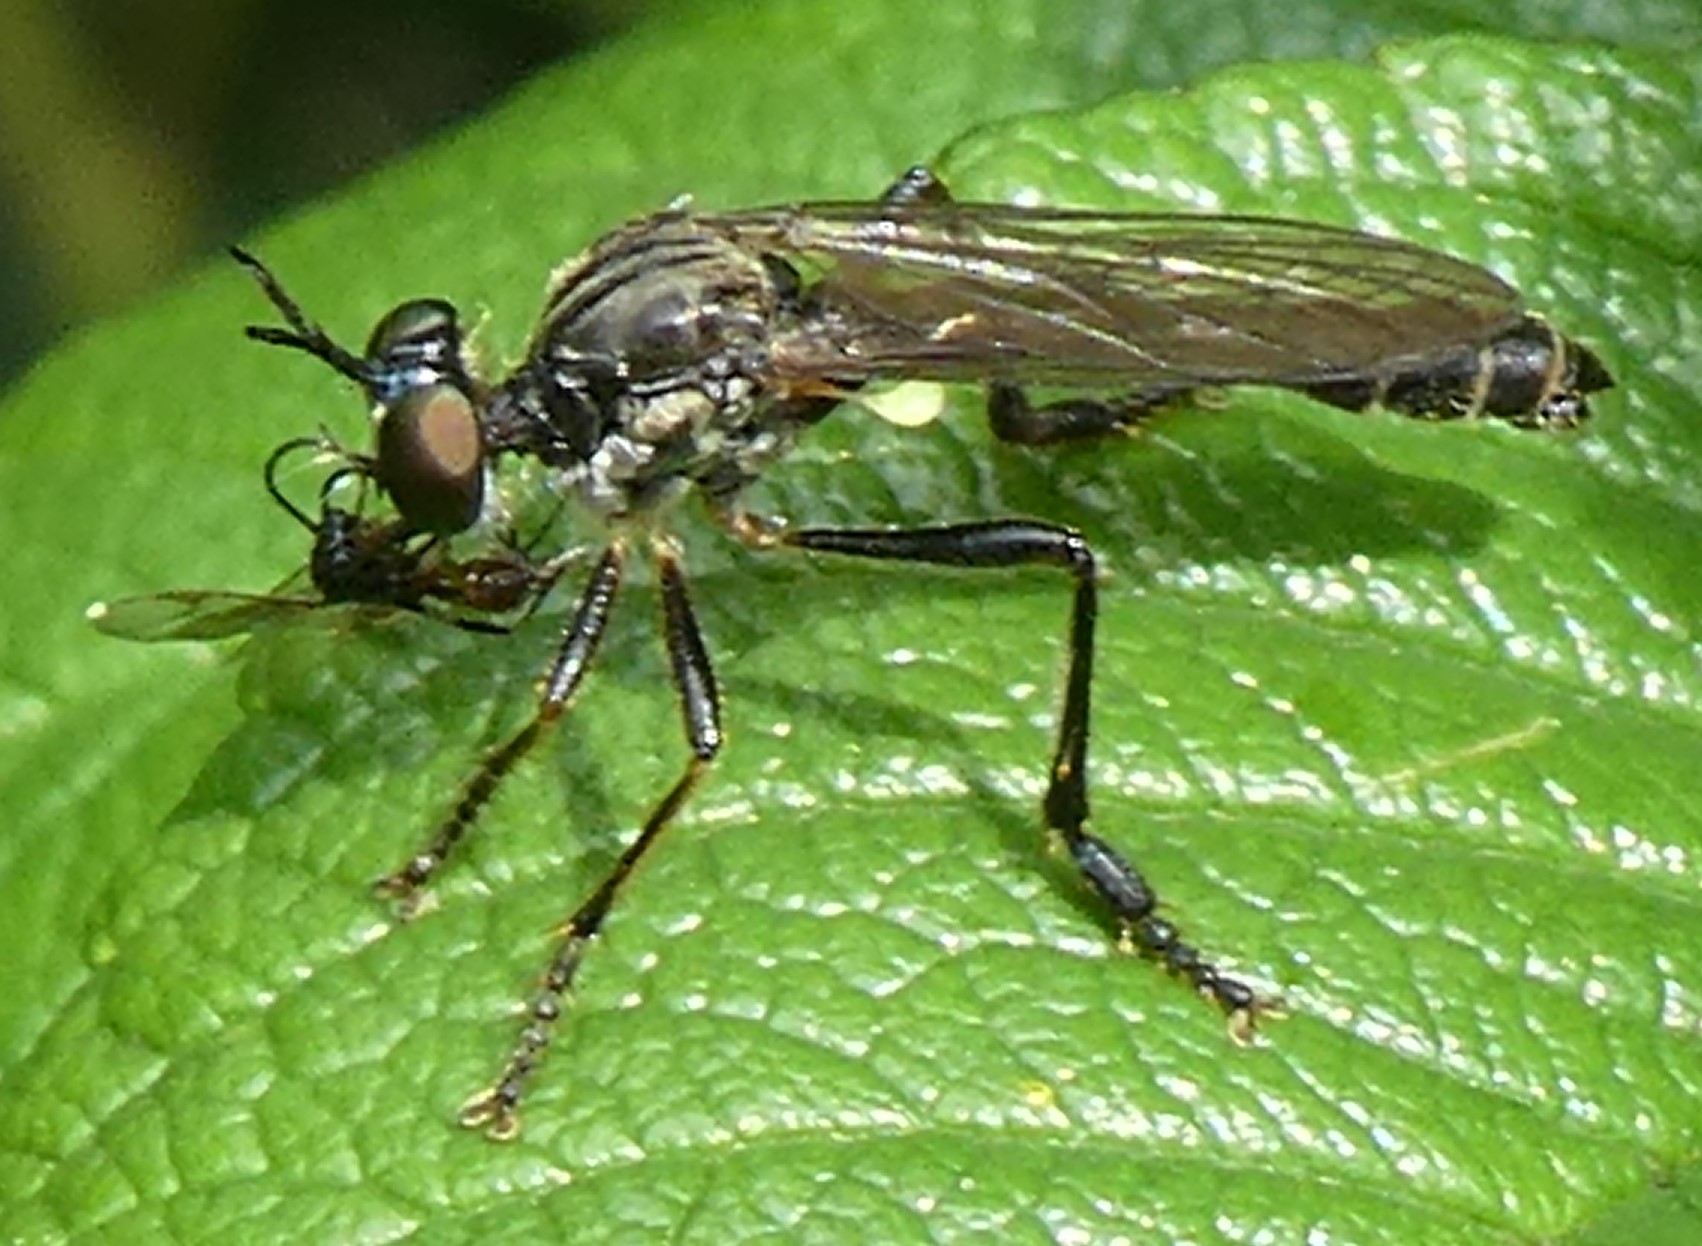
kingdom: Animalia
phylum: Arthropoda
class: Insecta
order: Diptera
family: Asilidae
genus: Dioctria
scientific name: Dioctria hyalipennis
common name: Stripe-legged robberfly
